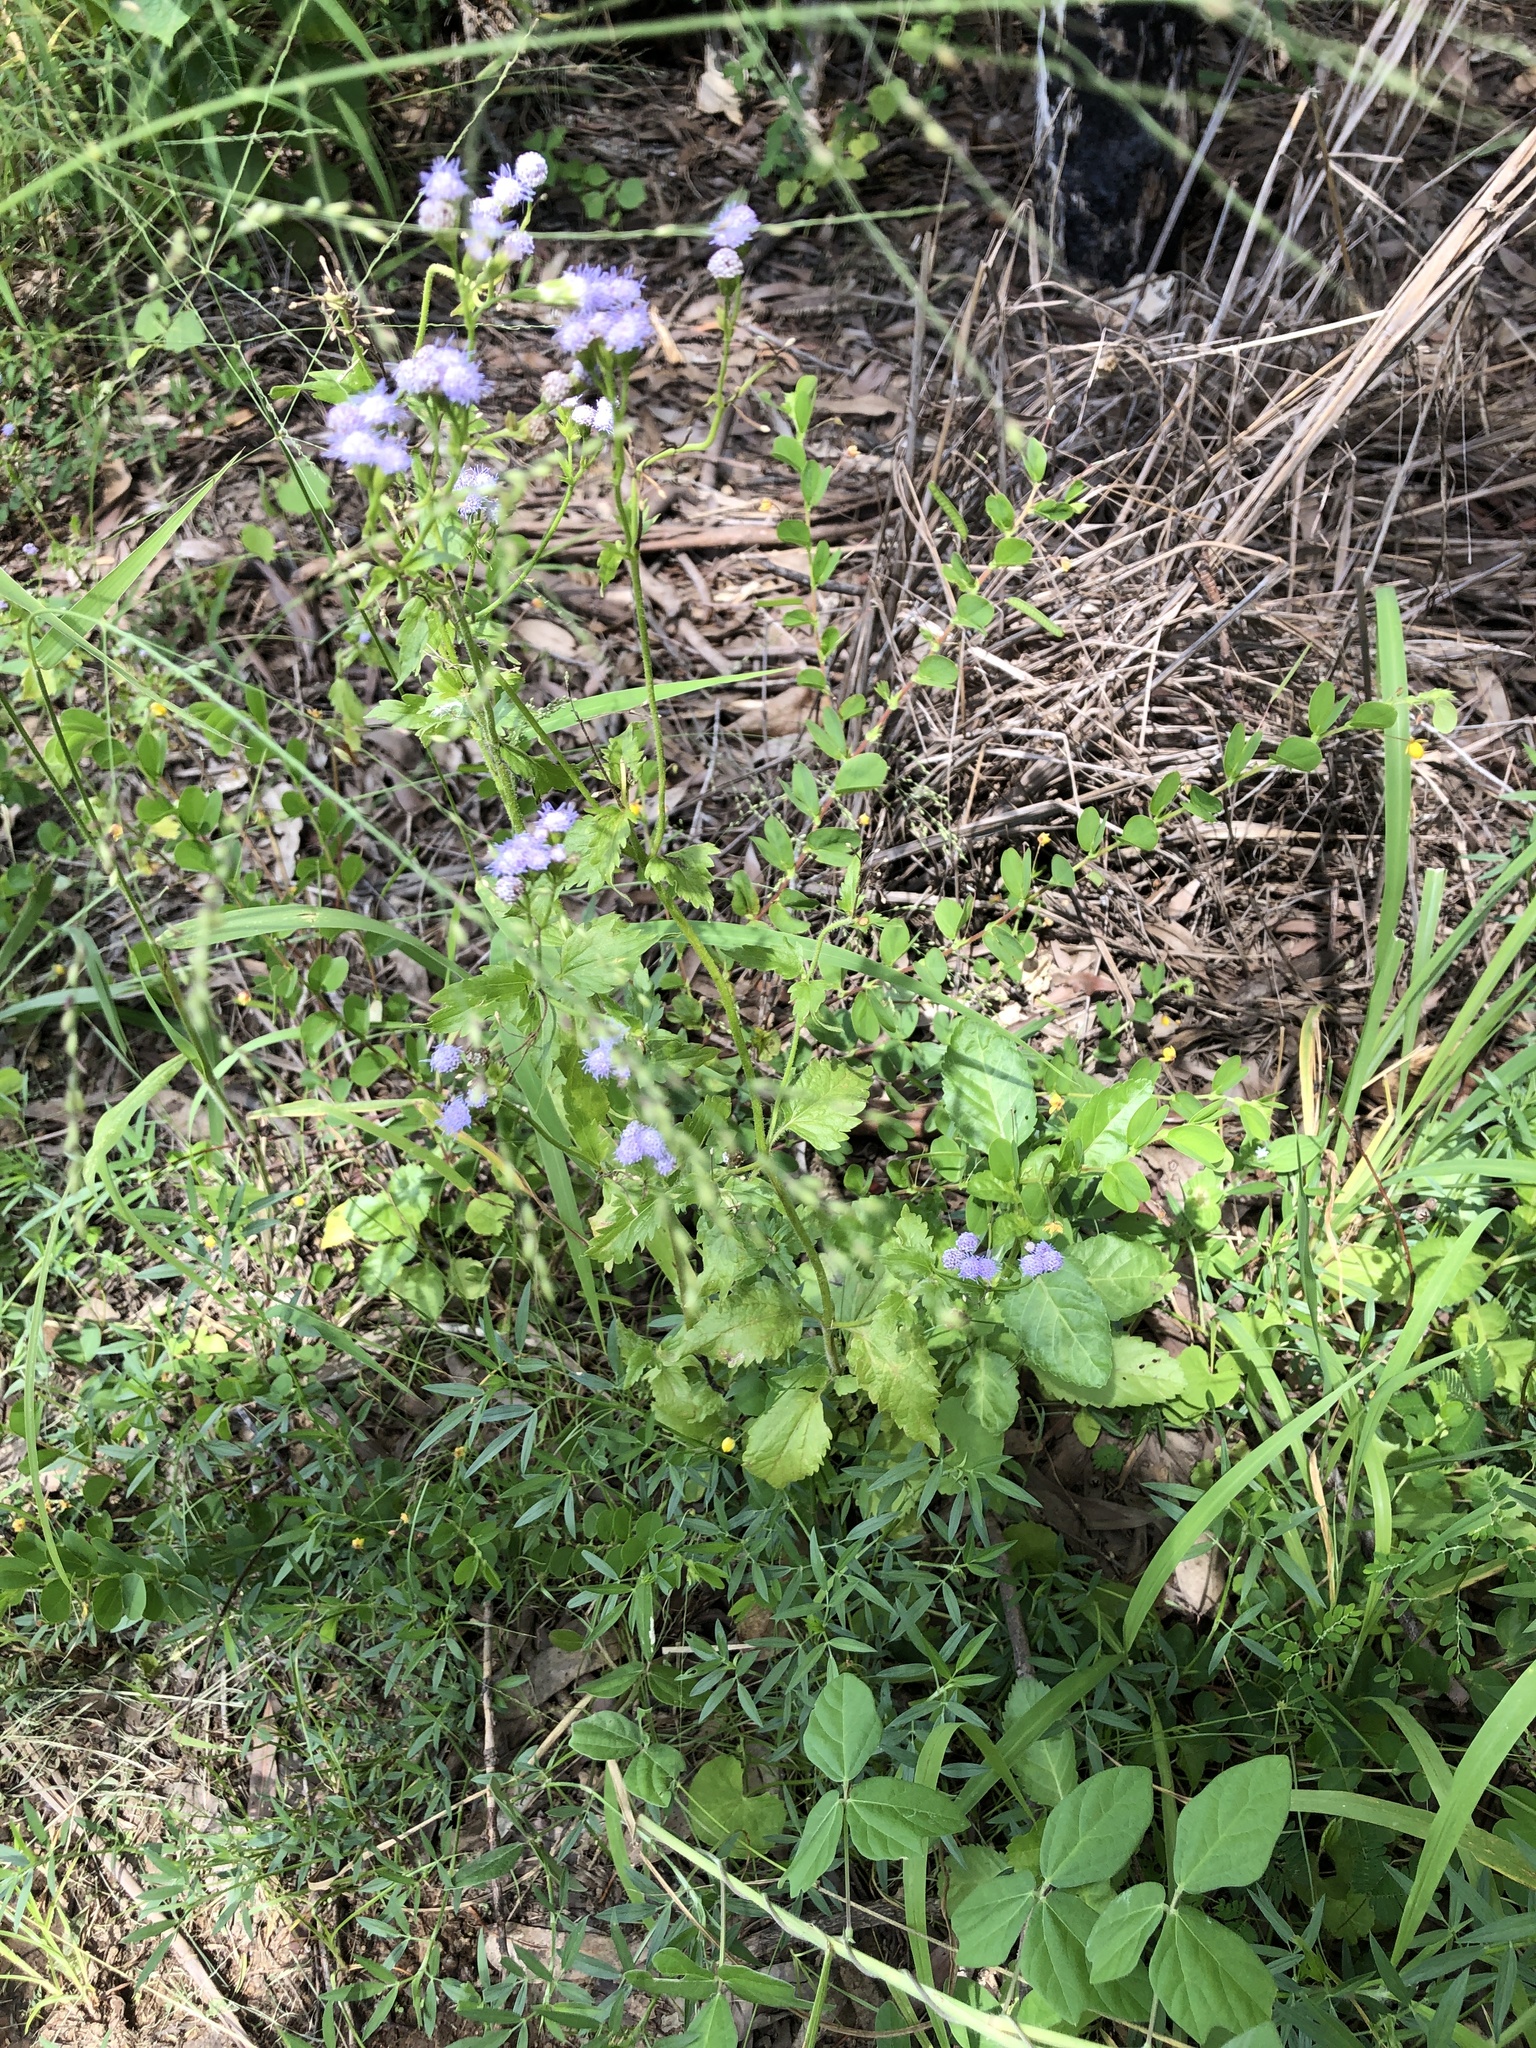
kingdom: Plantae
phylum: Tracheophyta
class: Magnoliopsida
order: Asterales
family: Asteraceae
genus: Praxelis
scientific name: Praxelis clematidea
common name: Praxelis
